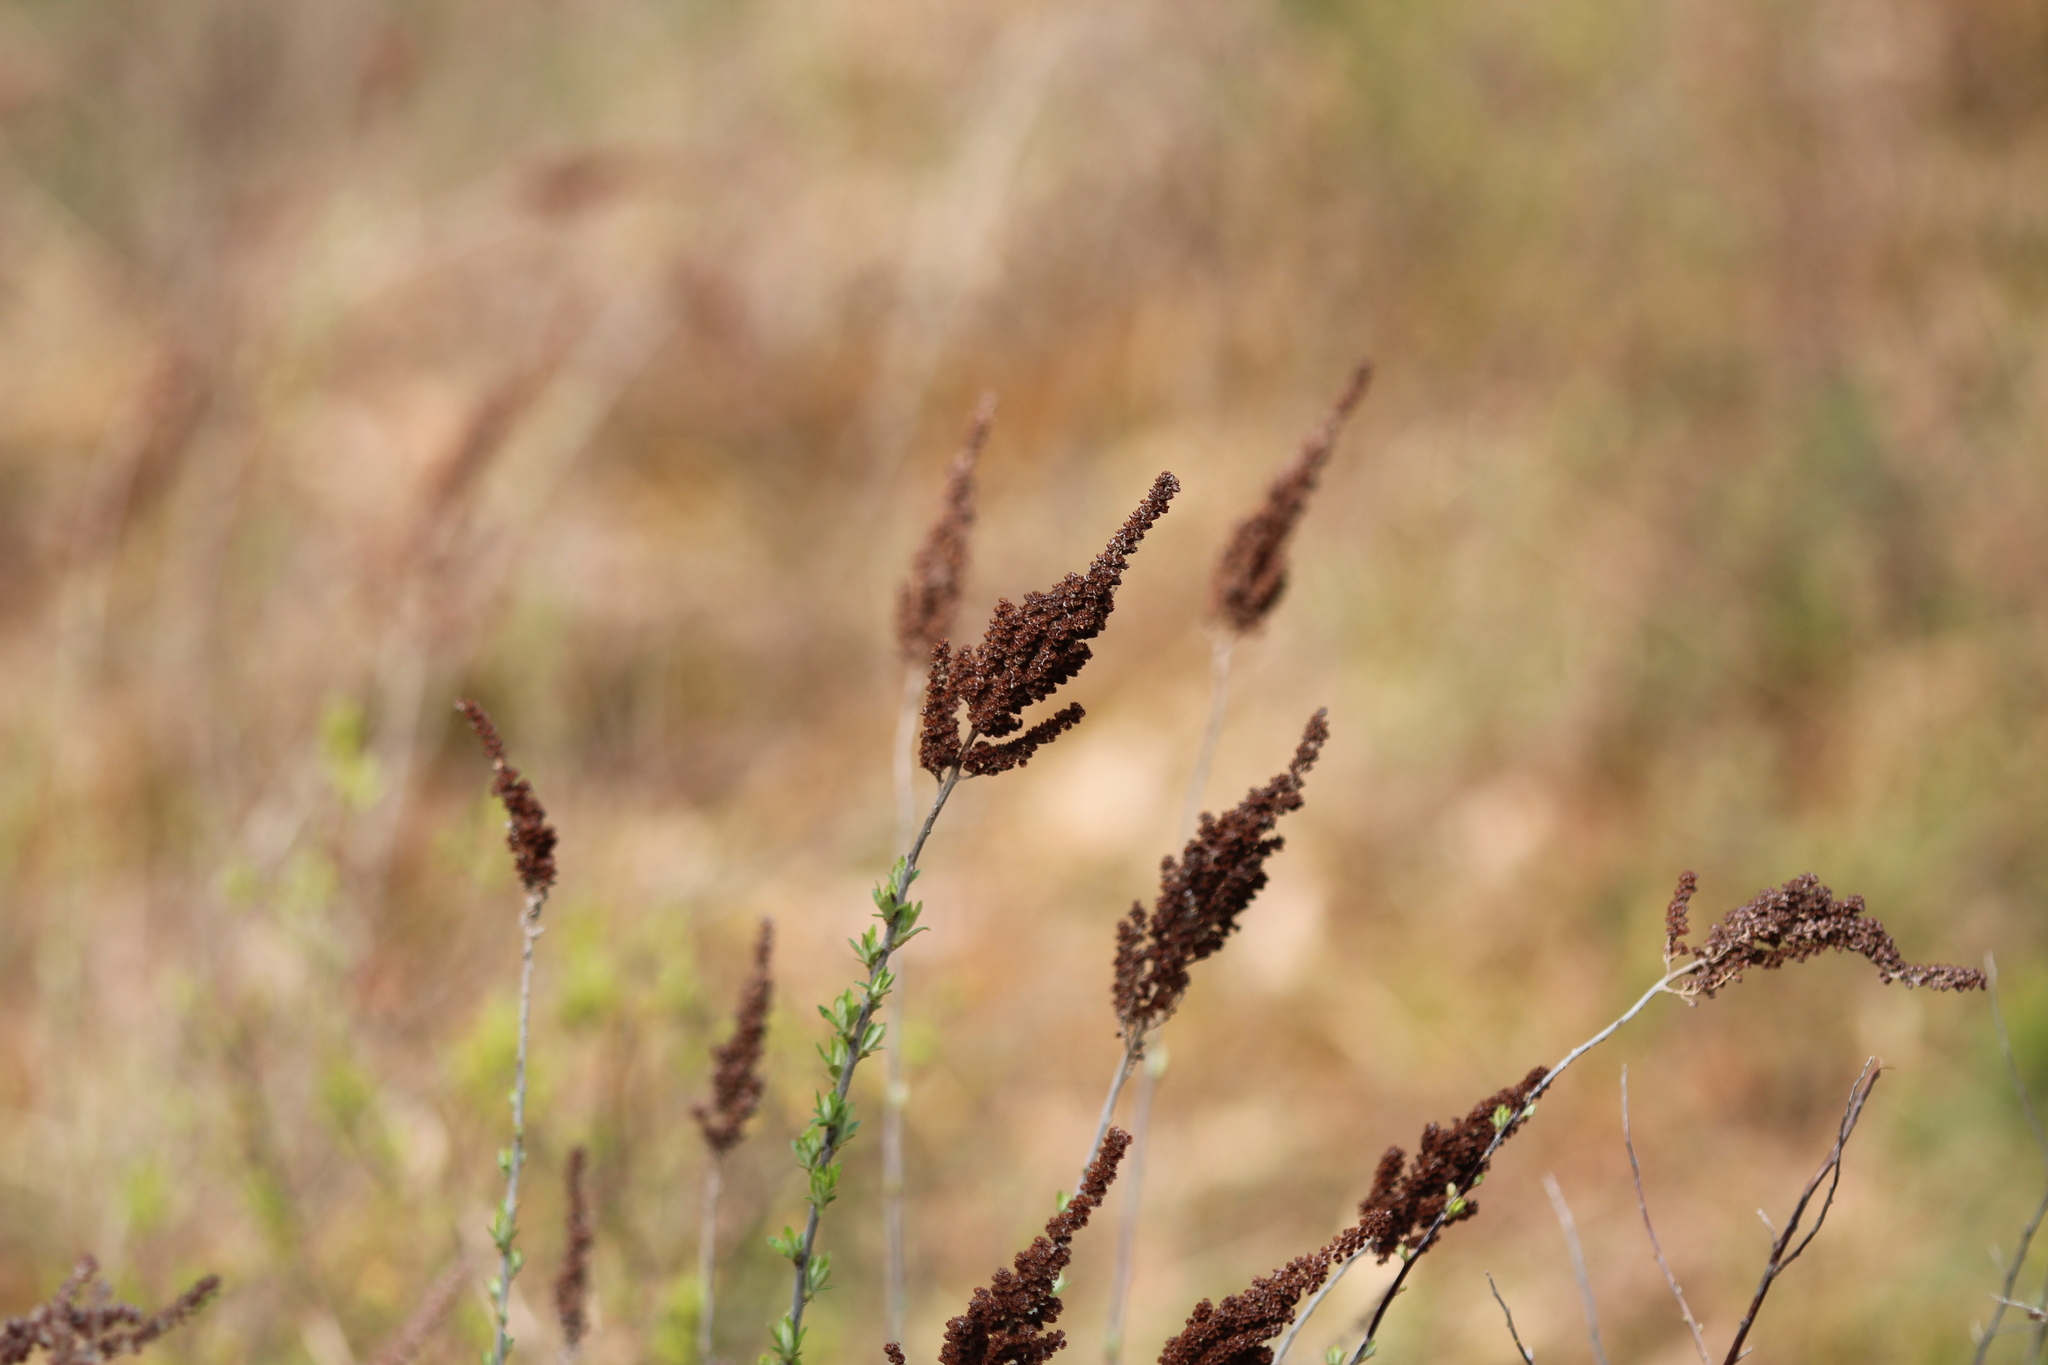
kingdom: Plantae
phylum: Tracheophyta
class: Magnoliopsida
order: Rosales
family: Rosaceae
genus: Spiraea
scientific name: Spiraea tomentosa
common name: Hardhack
